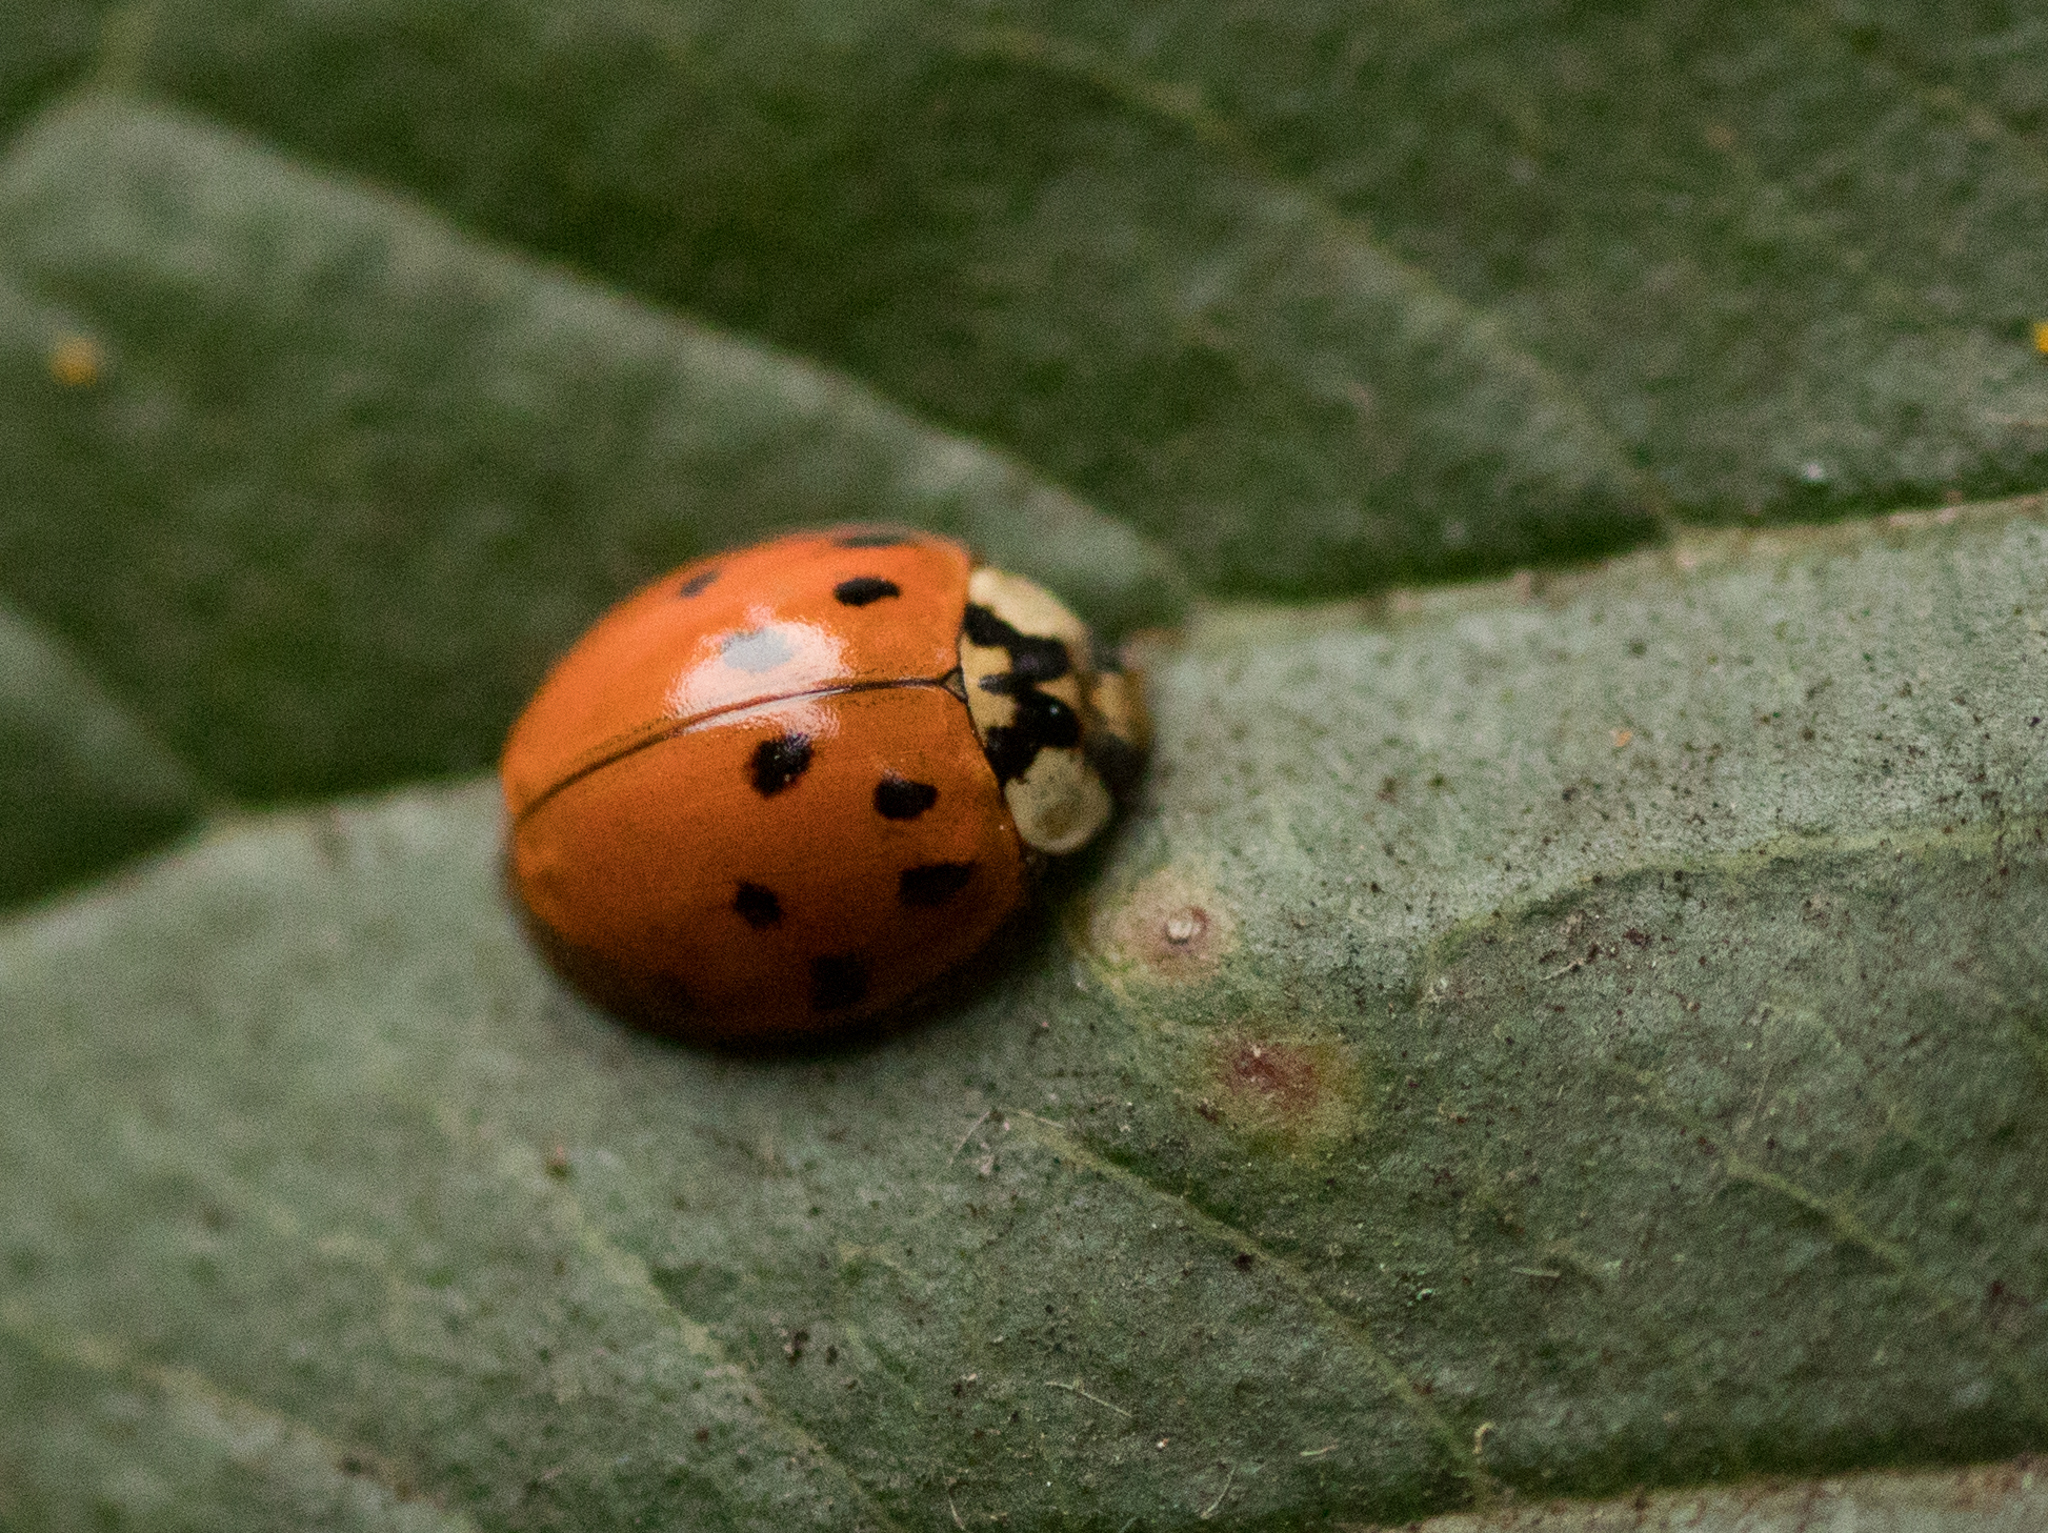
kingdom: Animalia
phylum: Arthropoda
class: Insecta
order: Coleoptera
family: Coccinellidae
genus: Harmonia
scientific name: Harmonia axyridis
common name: Harlequin ladybird
